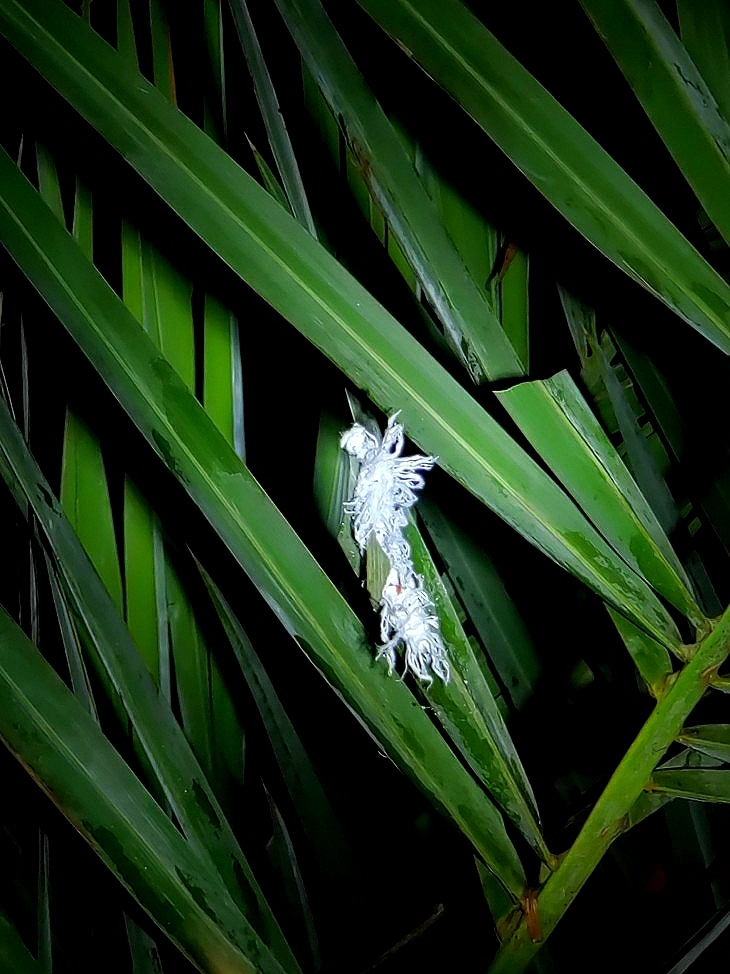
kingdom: Animalia
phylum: Arthropoda
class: Insecta
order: Lepidoptera
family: Hesperiidae
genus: Gangara
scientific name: Gangara thyrsis
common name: Giant redeye
